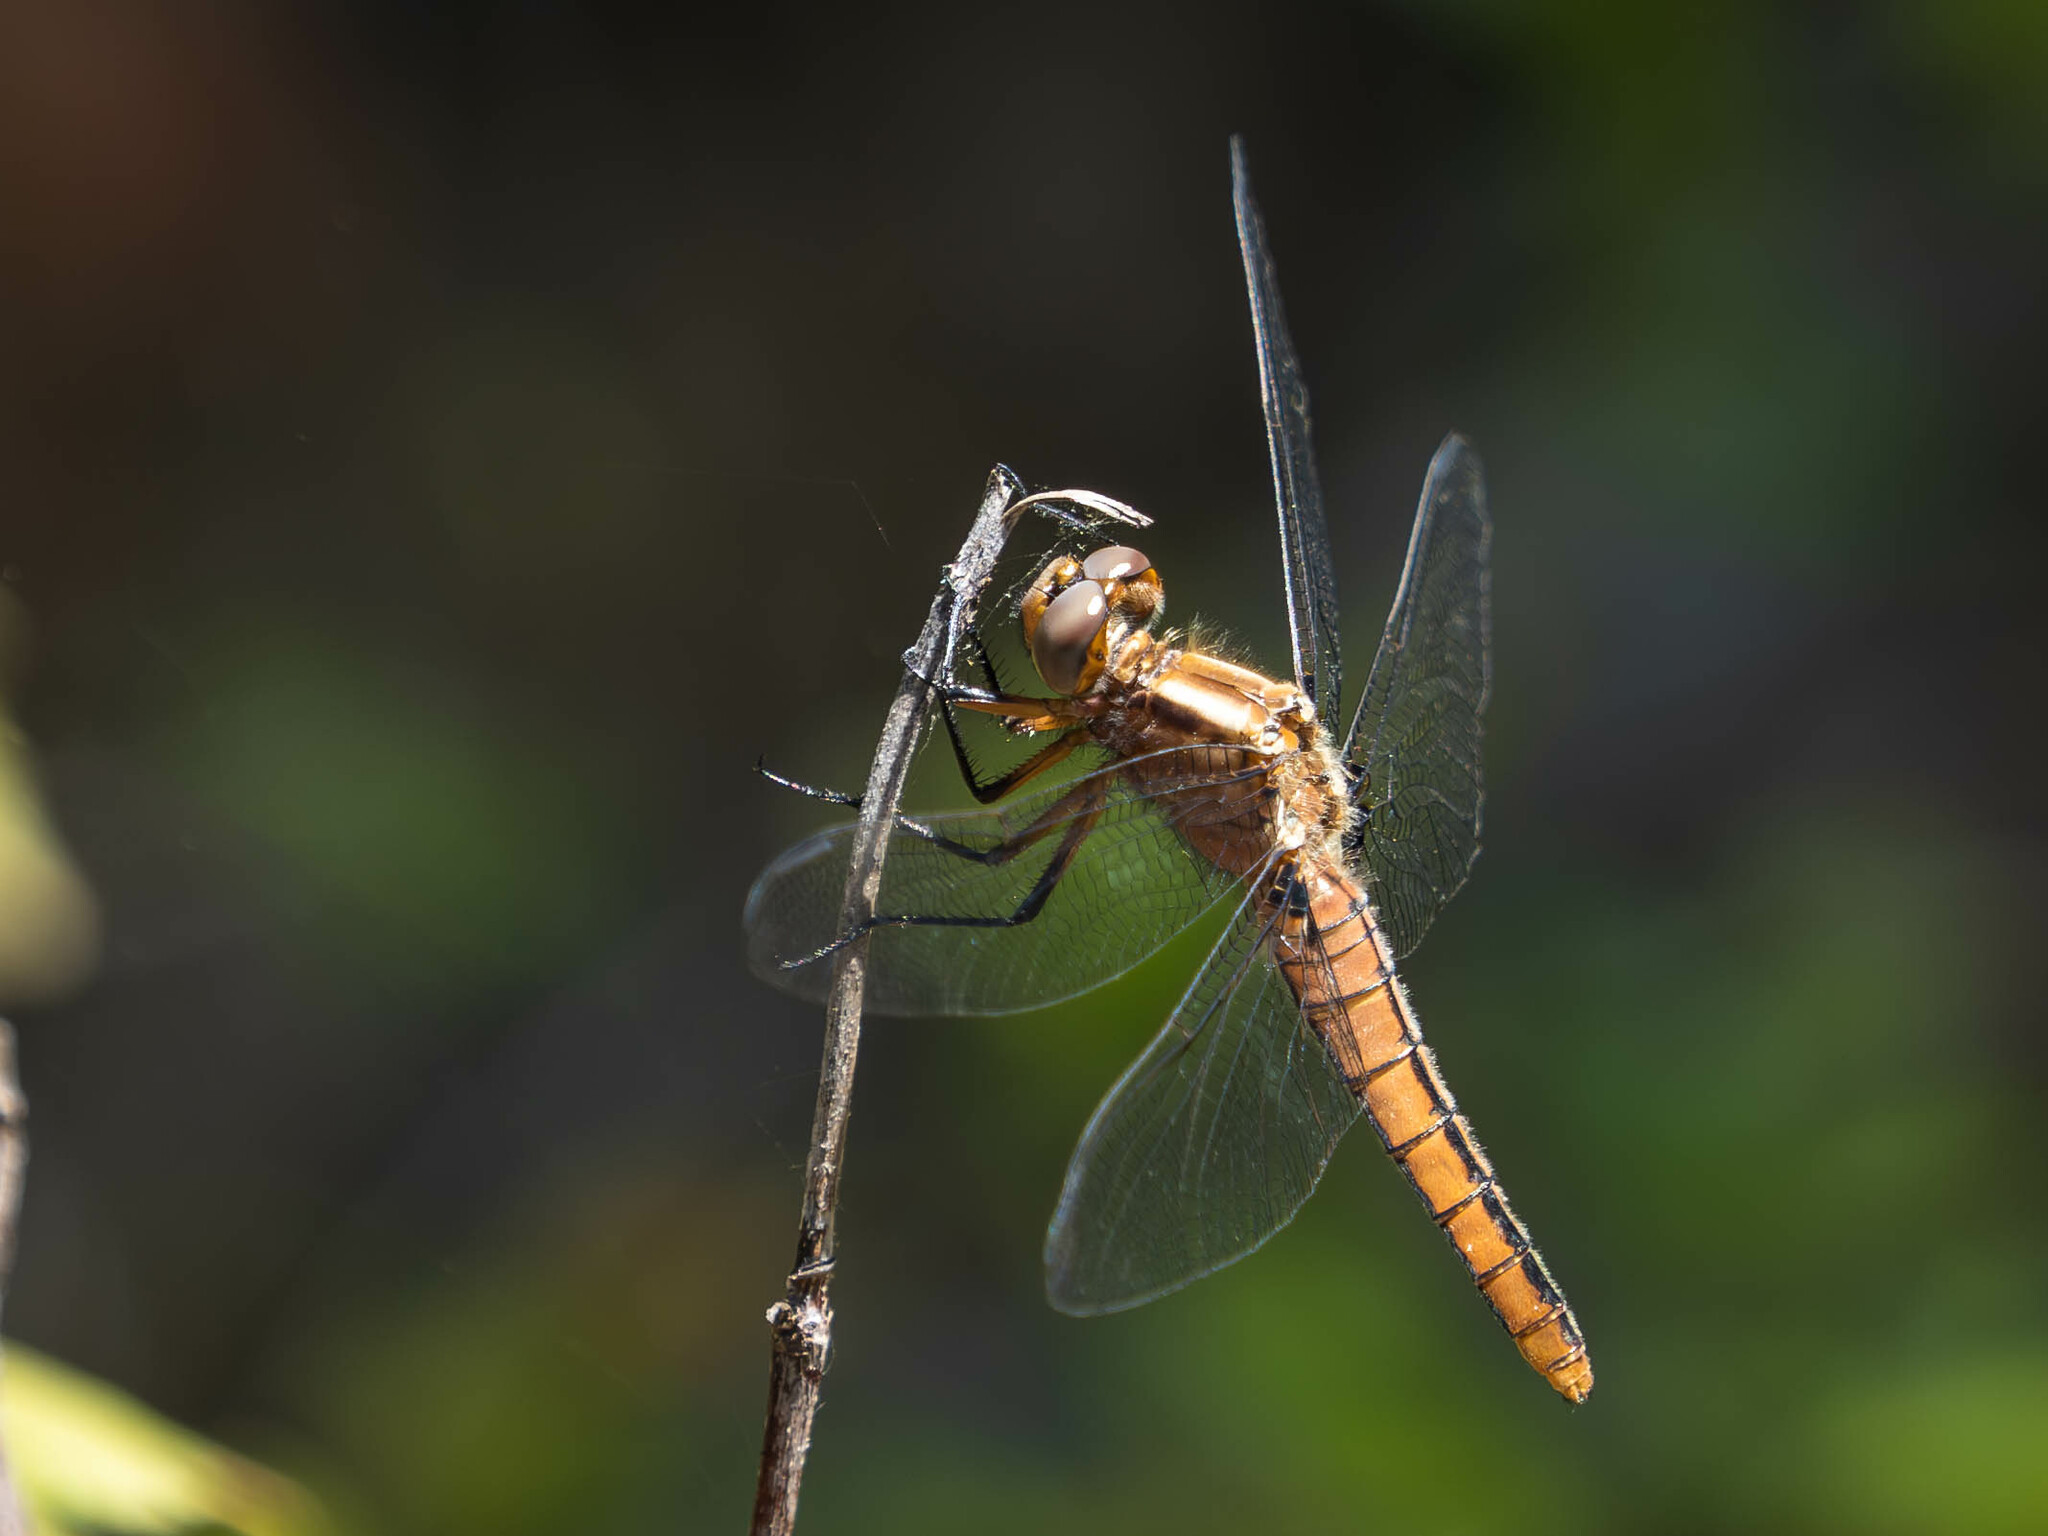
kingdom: Animalia
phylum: Arthropoda
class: Insecta
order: Odonata
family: Libellulidae
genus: Ladona
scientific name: Ladona julia
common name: Chalk-fronted corporal
